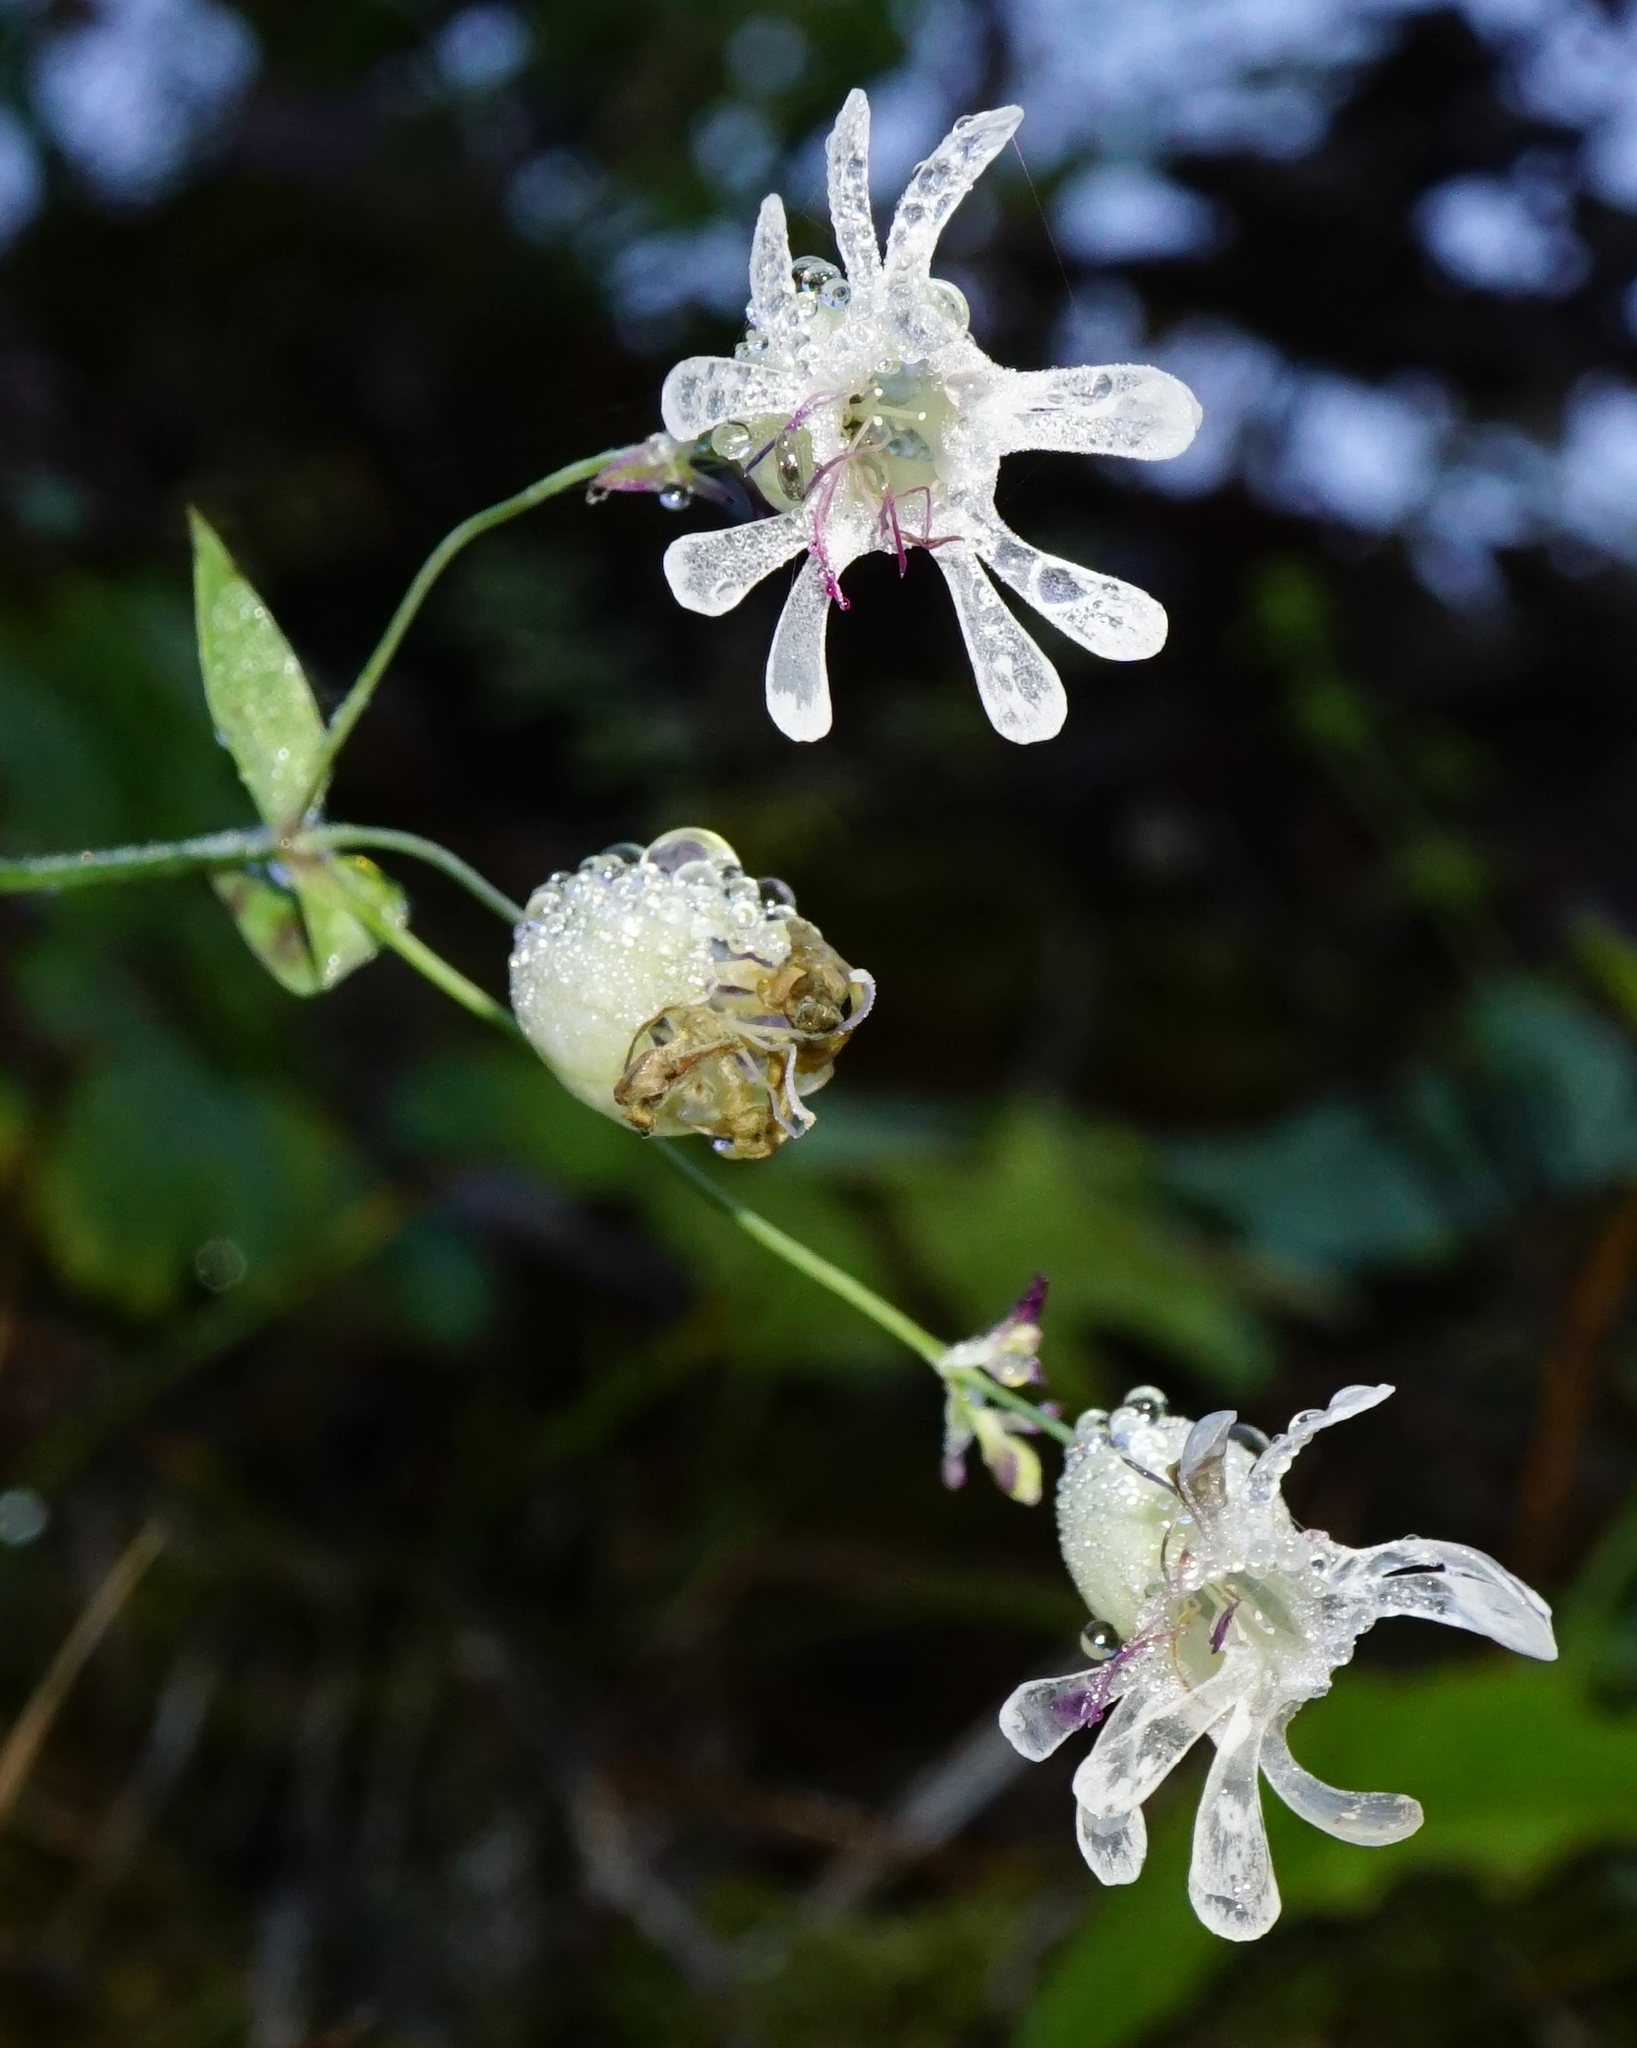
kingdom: Plantae
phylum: Tracheophyta
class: Magnoliopsida
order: Caryophyllales
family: Caryophyllaceae
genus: Silene
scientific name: Silene vulgaris
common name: Bladder campion
